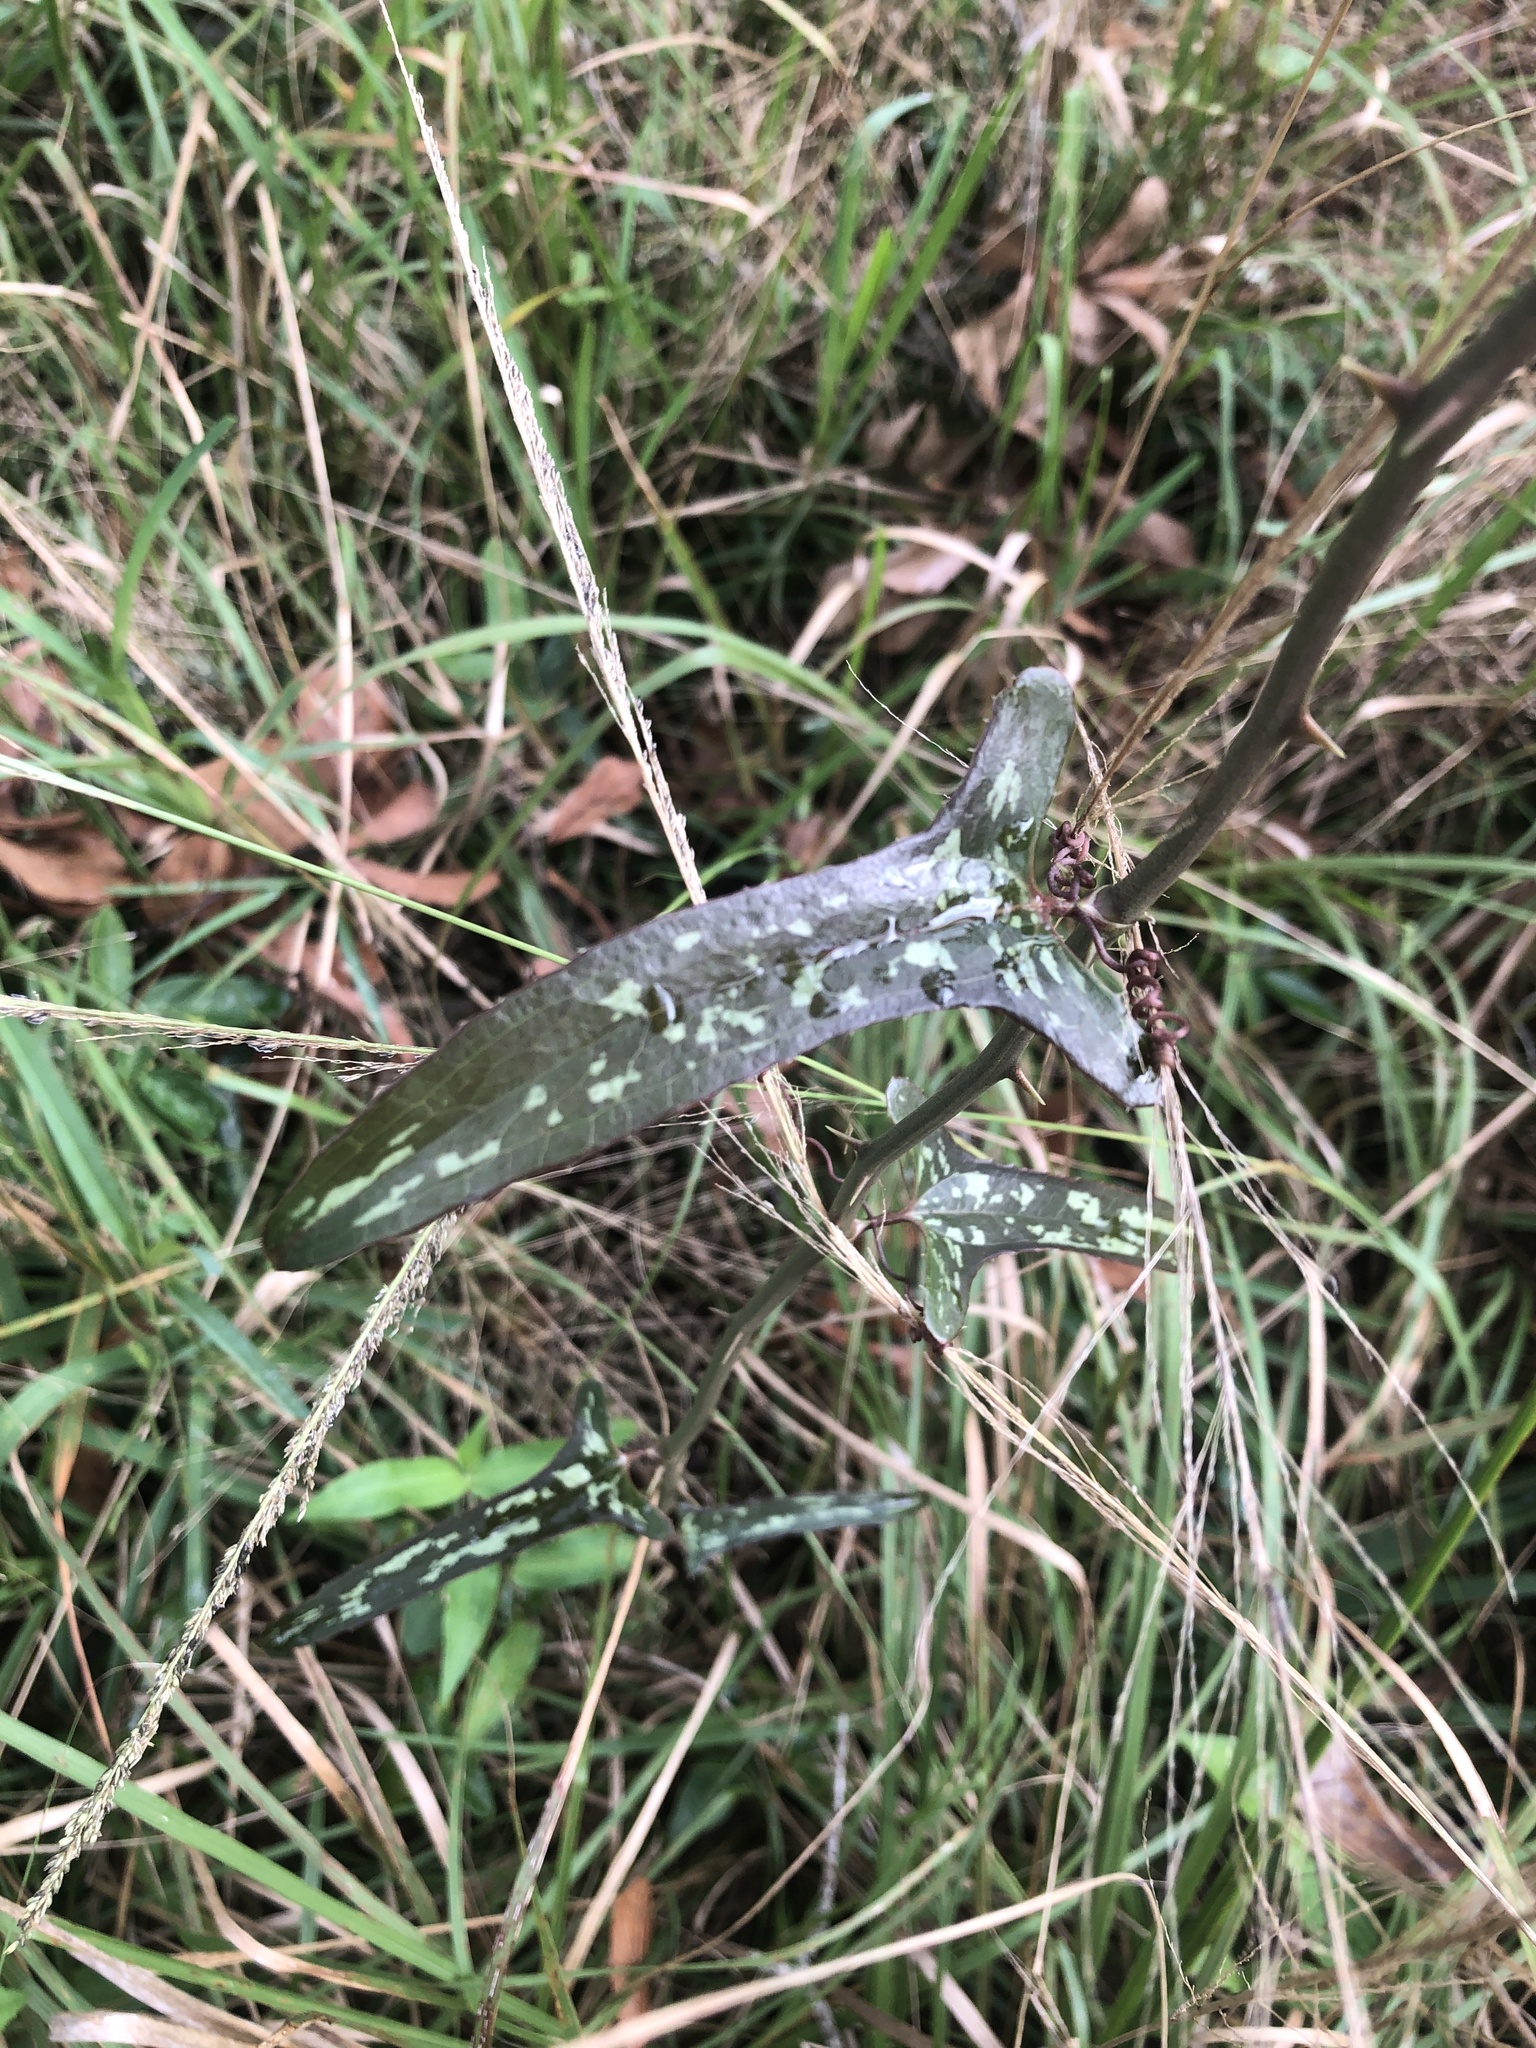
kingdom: Plantae
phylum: Tracheophyta
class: Liliopsida
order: Liliales
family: Smilacaceae
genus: Smilax
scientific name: Smilax bona-nox
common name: Catbrier
